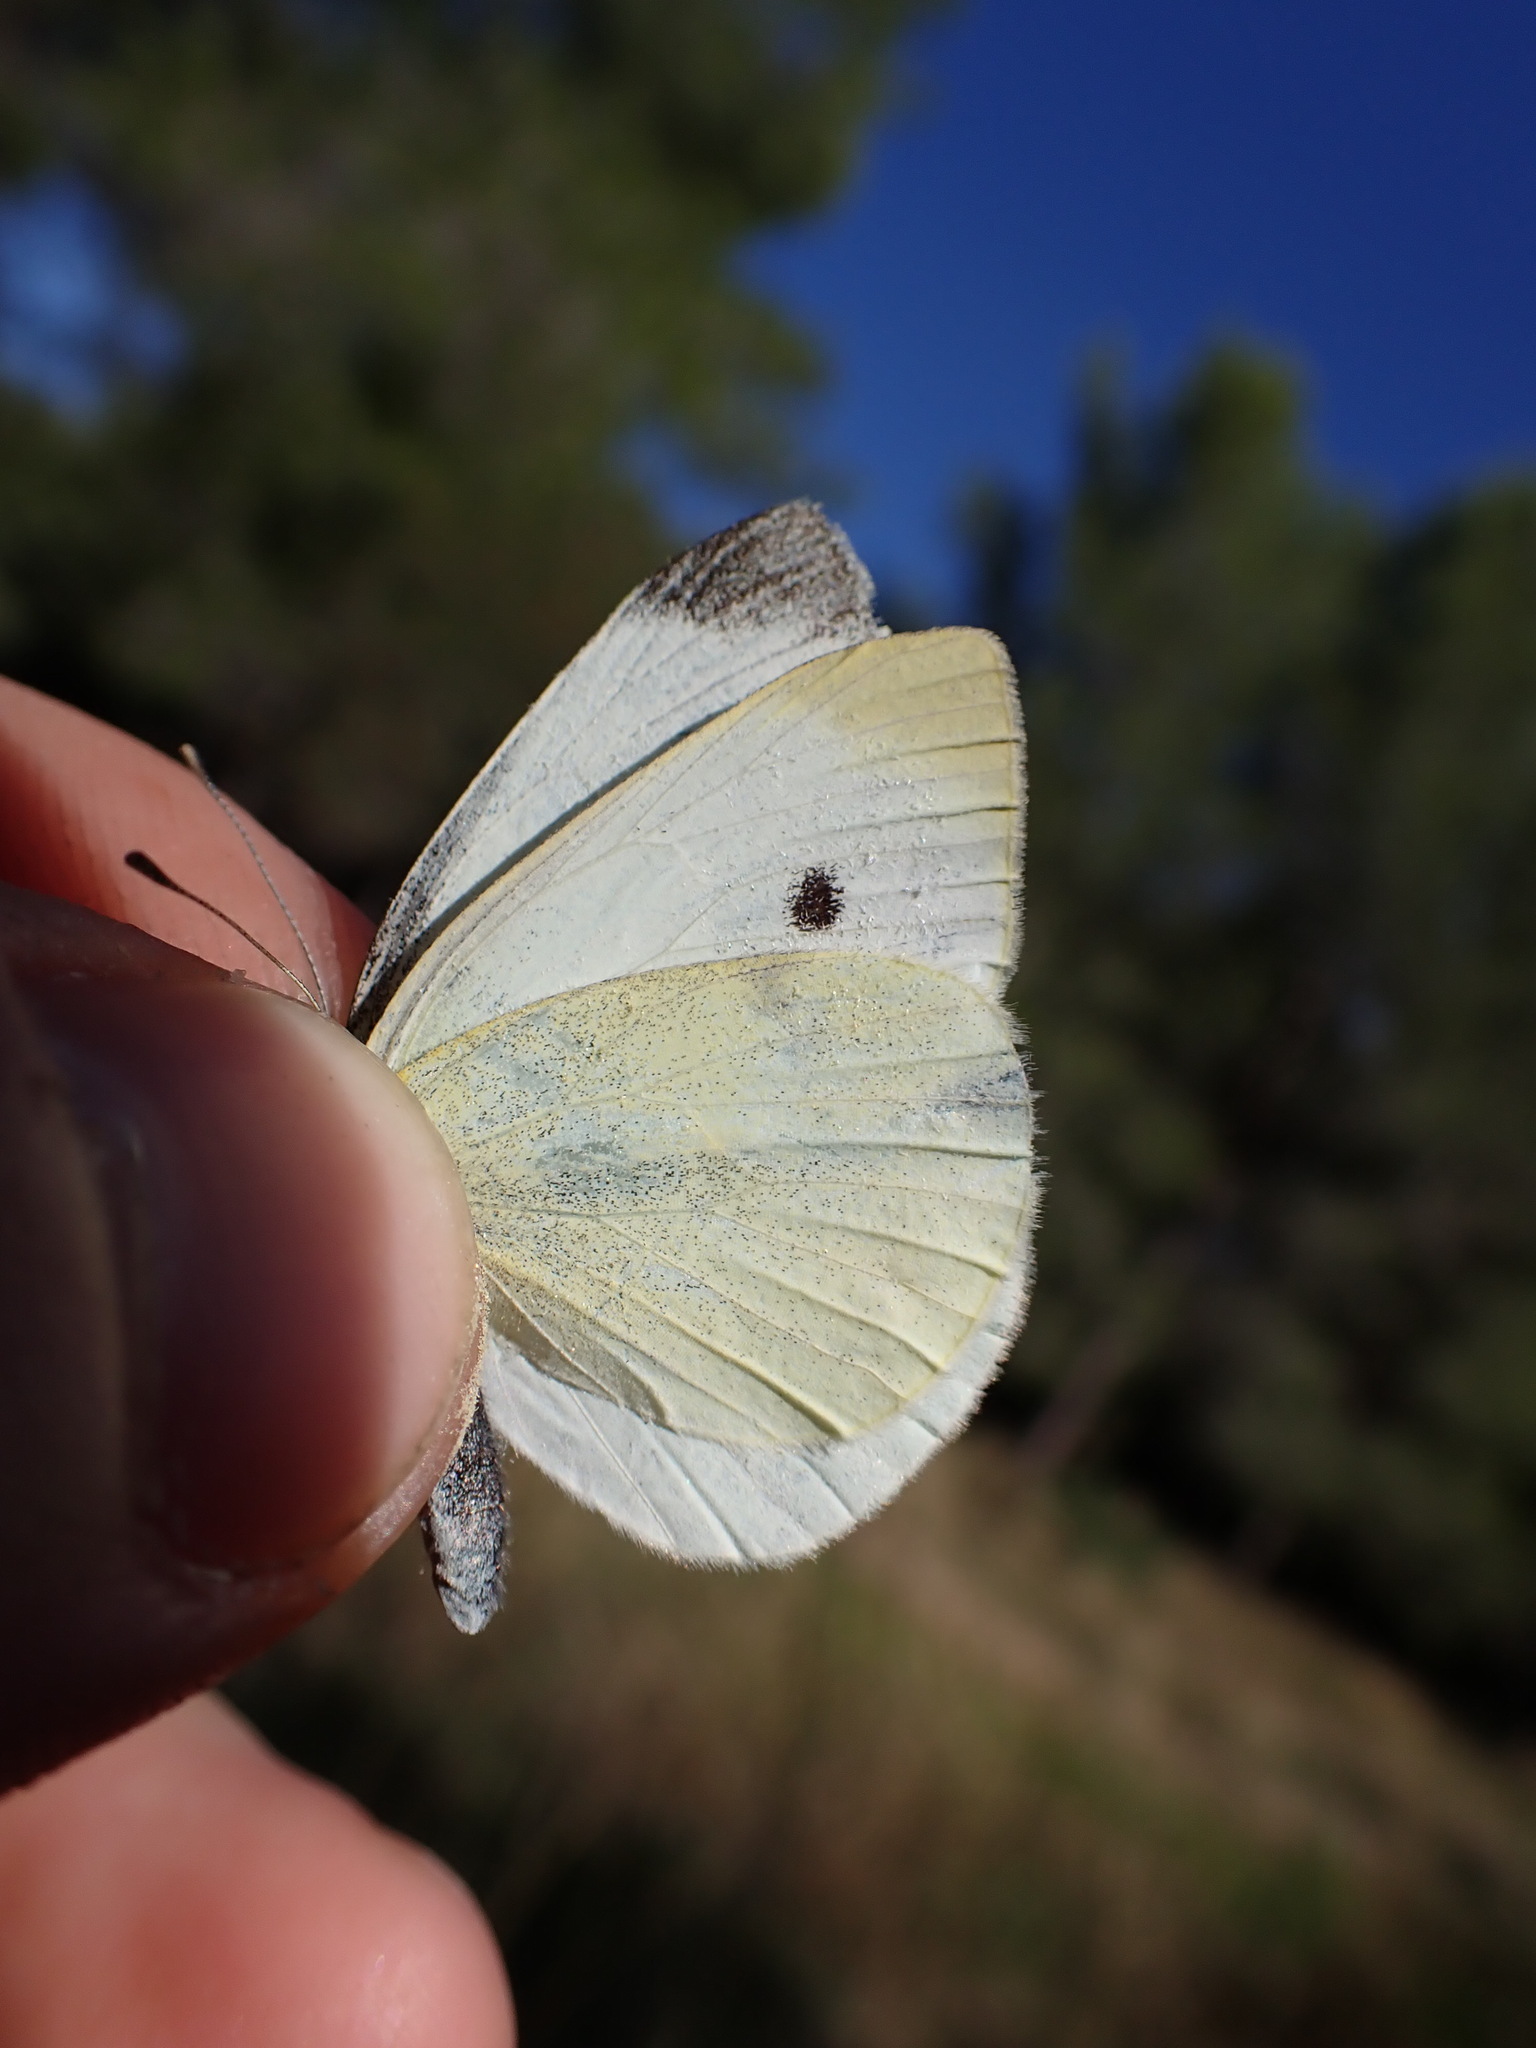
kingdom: Animalia
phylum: Arthropoda
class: Insecta
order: Lepidoptera
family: Pieridae
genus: Pieris
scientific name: Pieris rapae
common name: Small white
